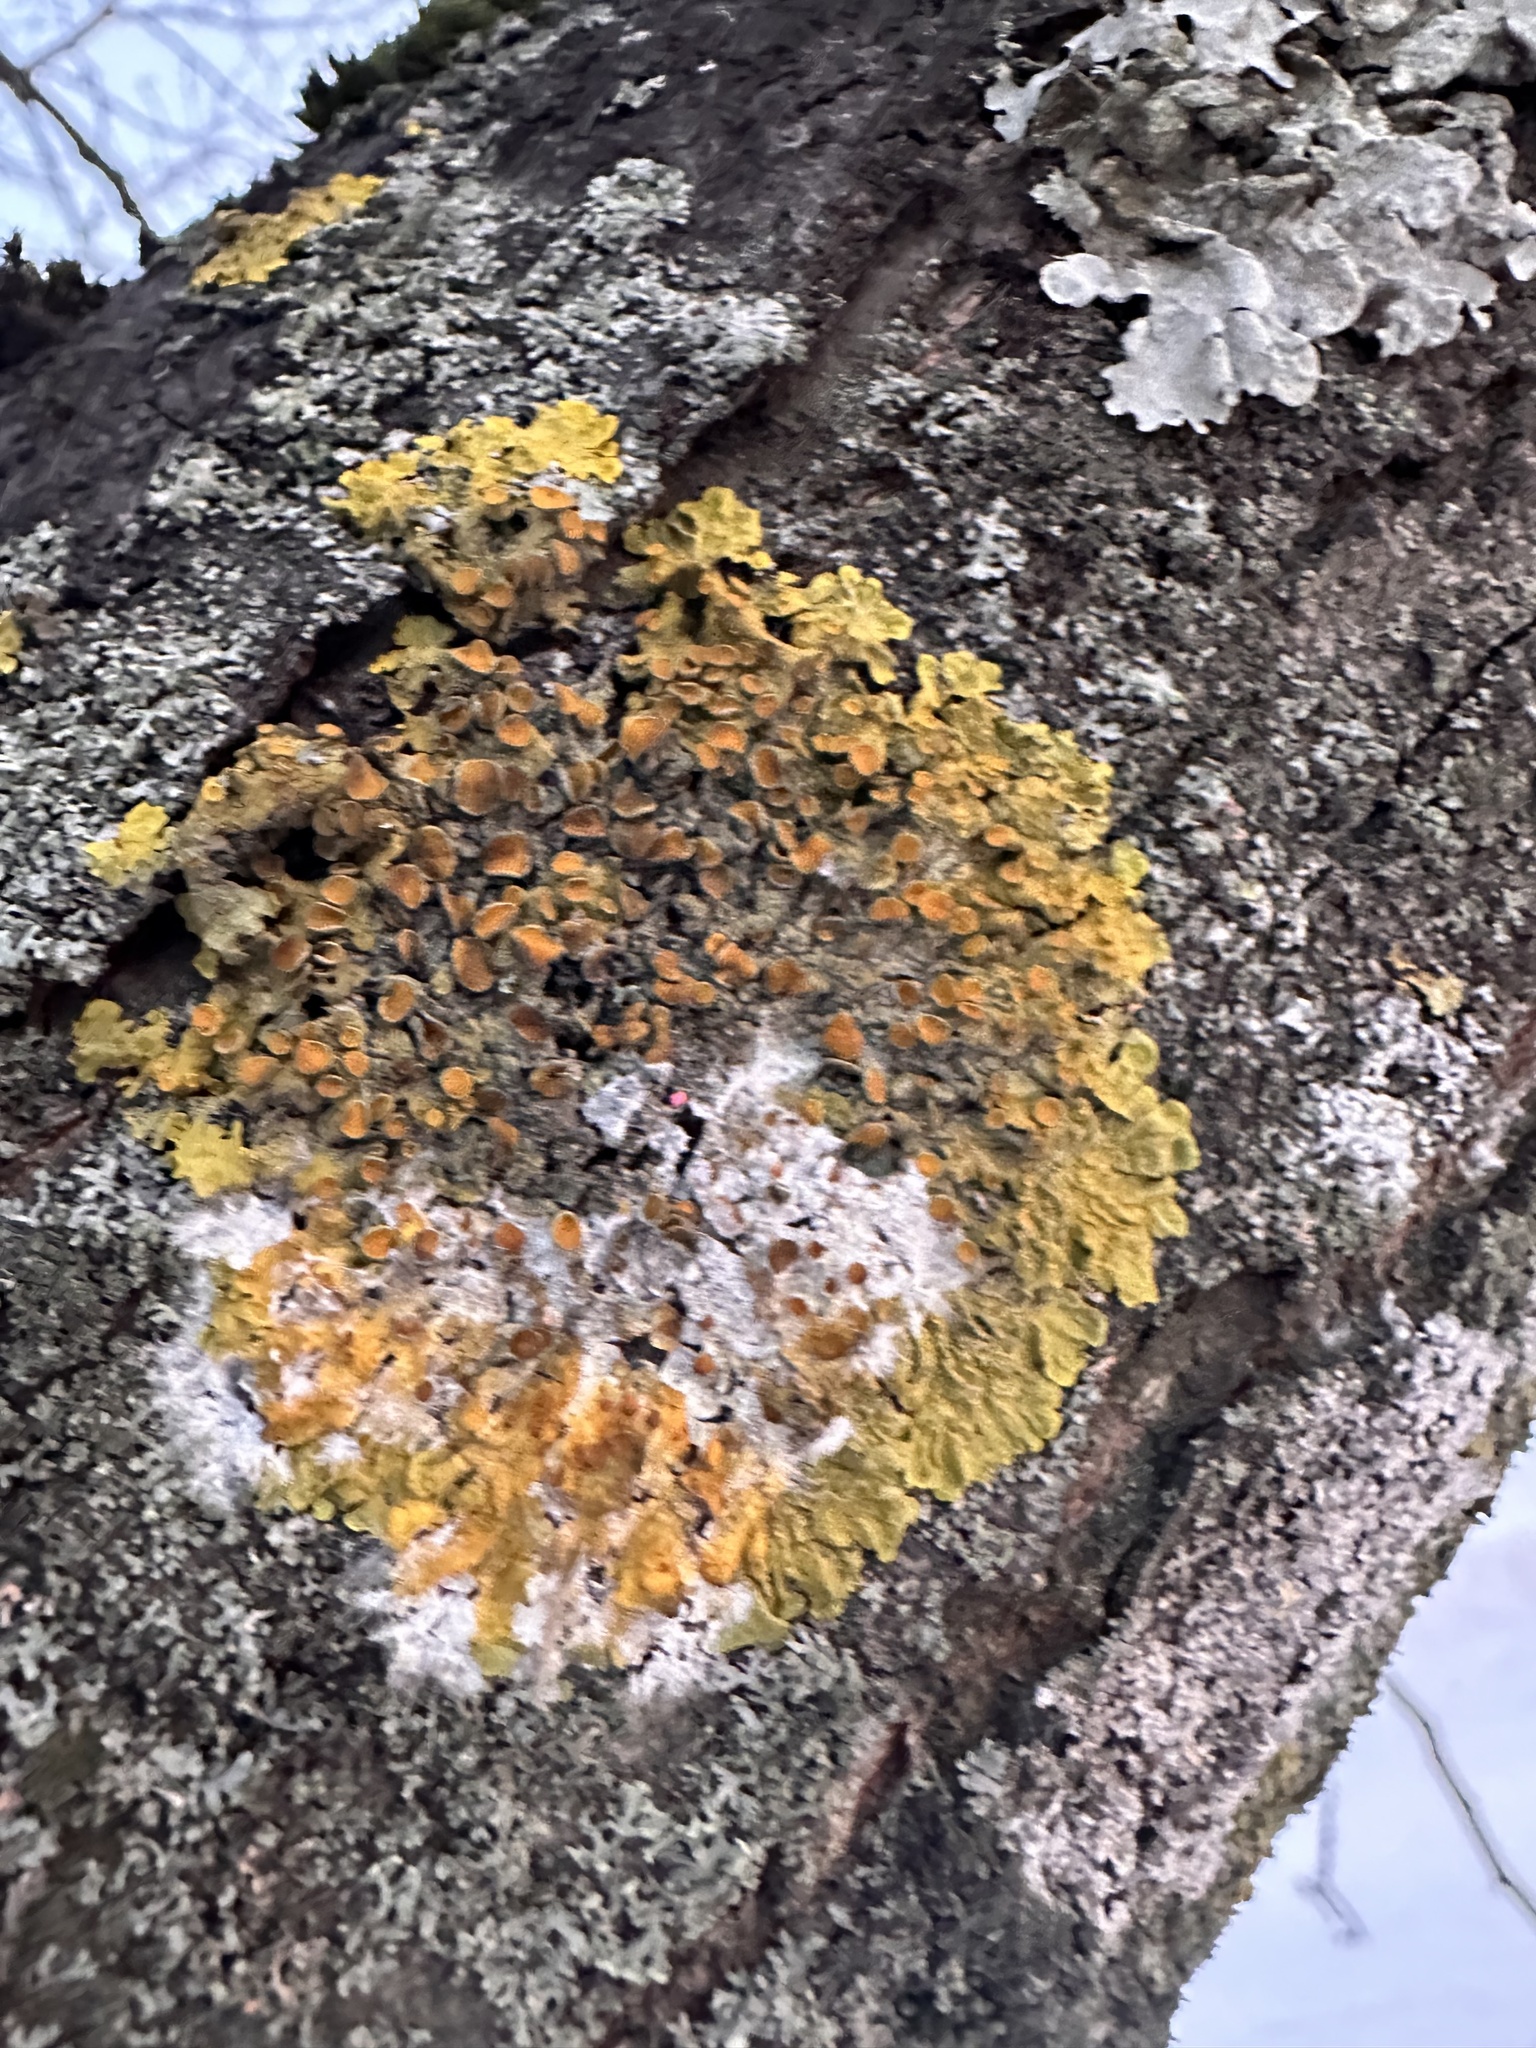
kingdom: Fungi
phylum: Basidiomycota
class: Agaricomycetes
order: Atheliales
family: Atheliaceae
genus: Athelia
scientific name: Athelia arachnoidea
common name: Candelabra duster
